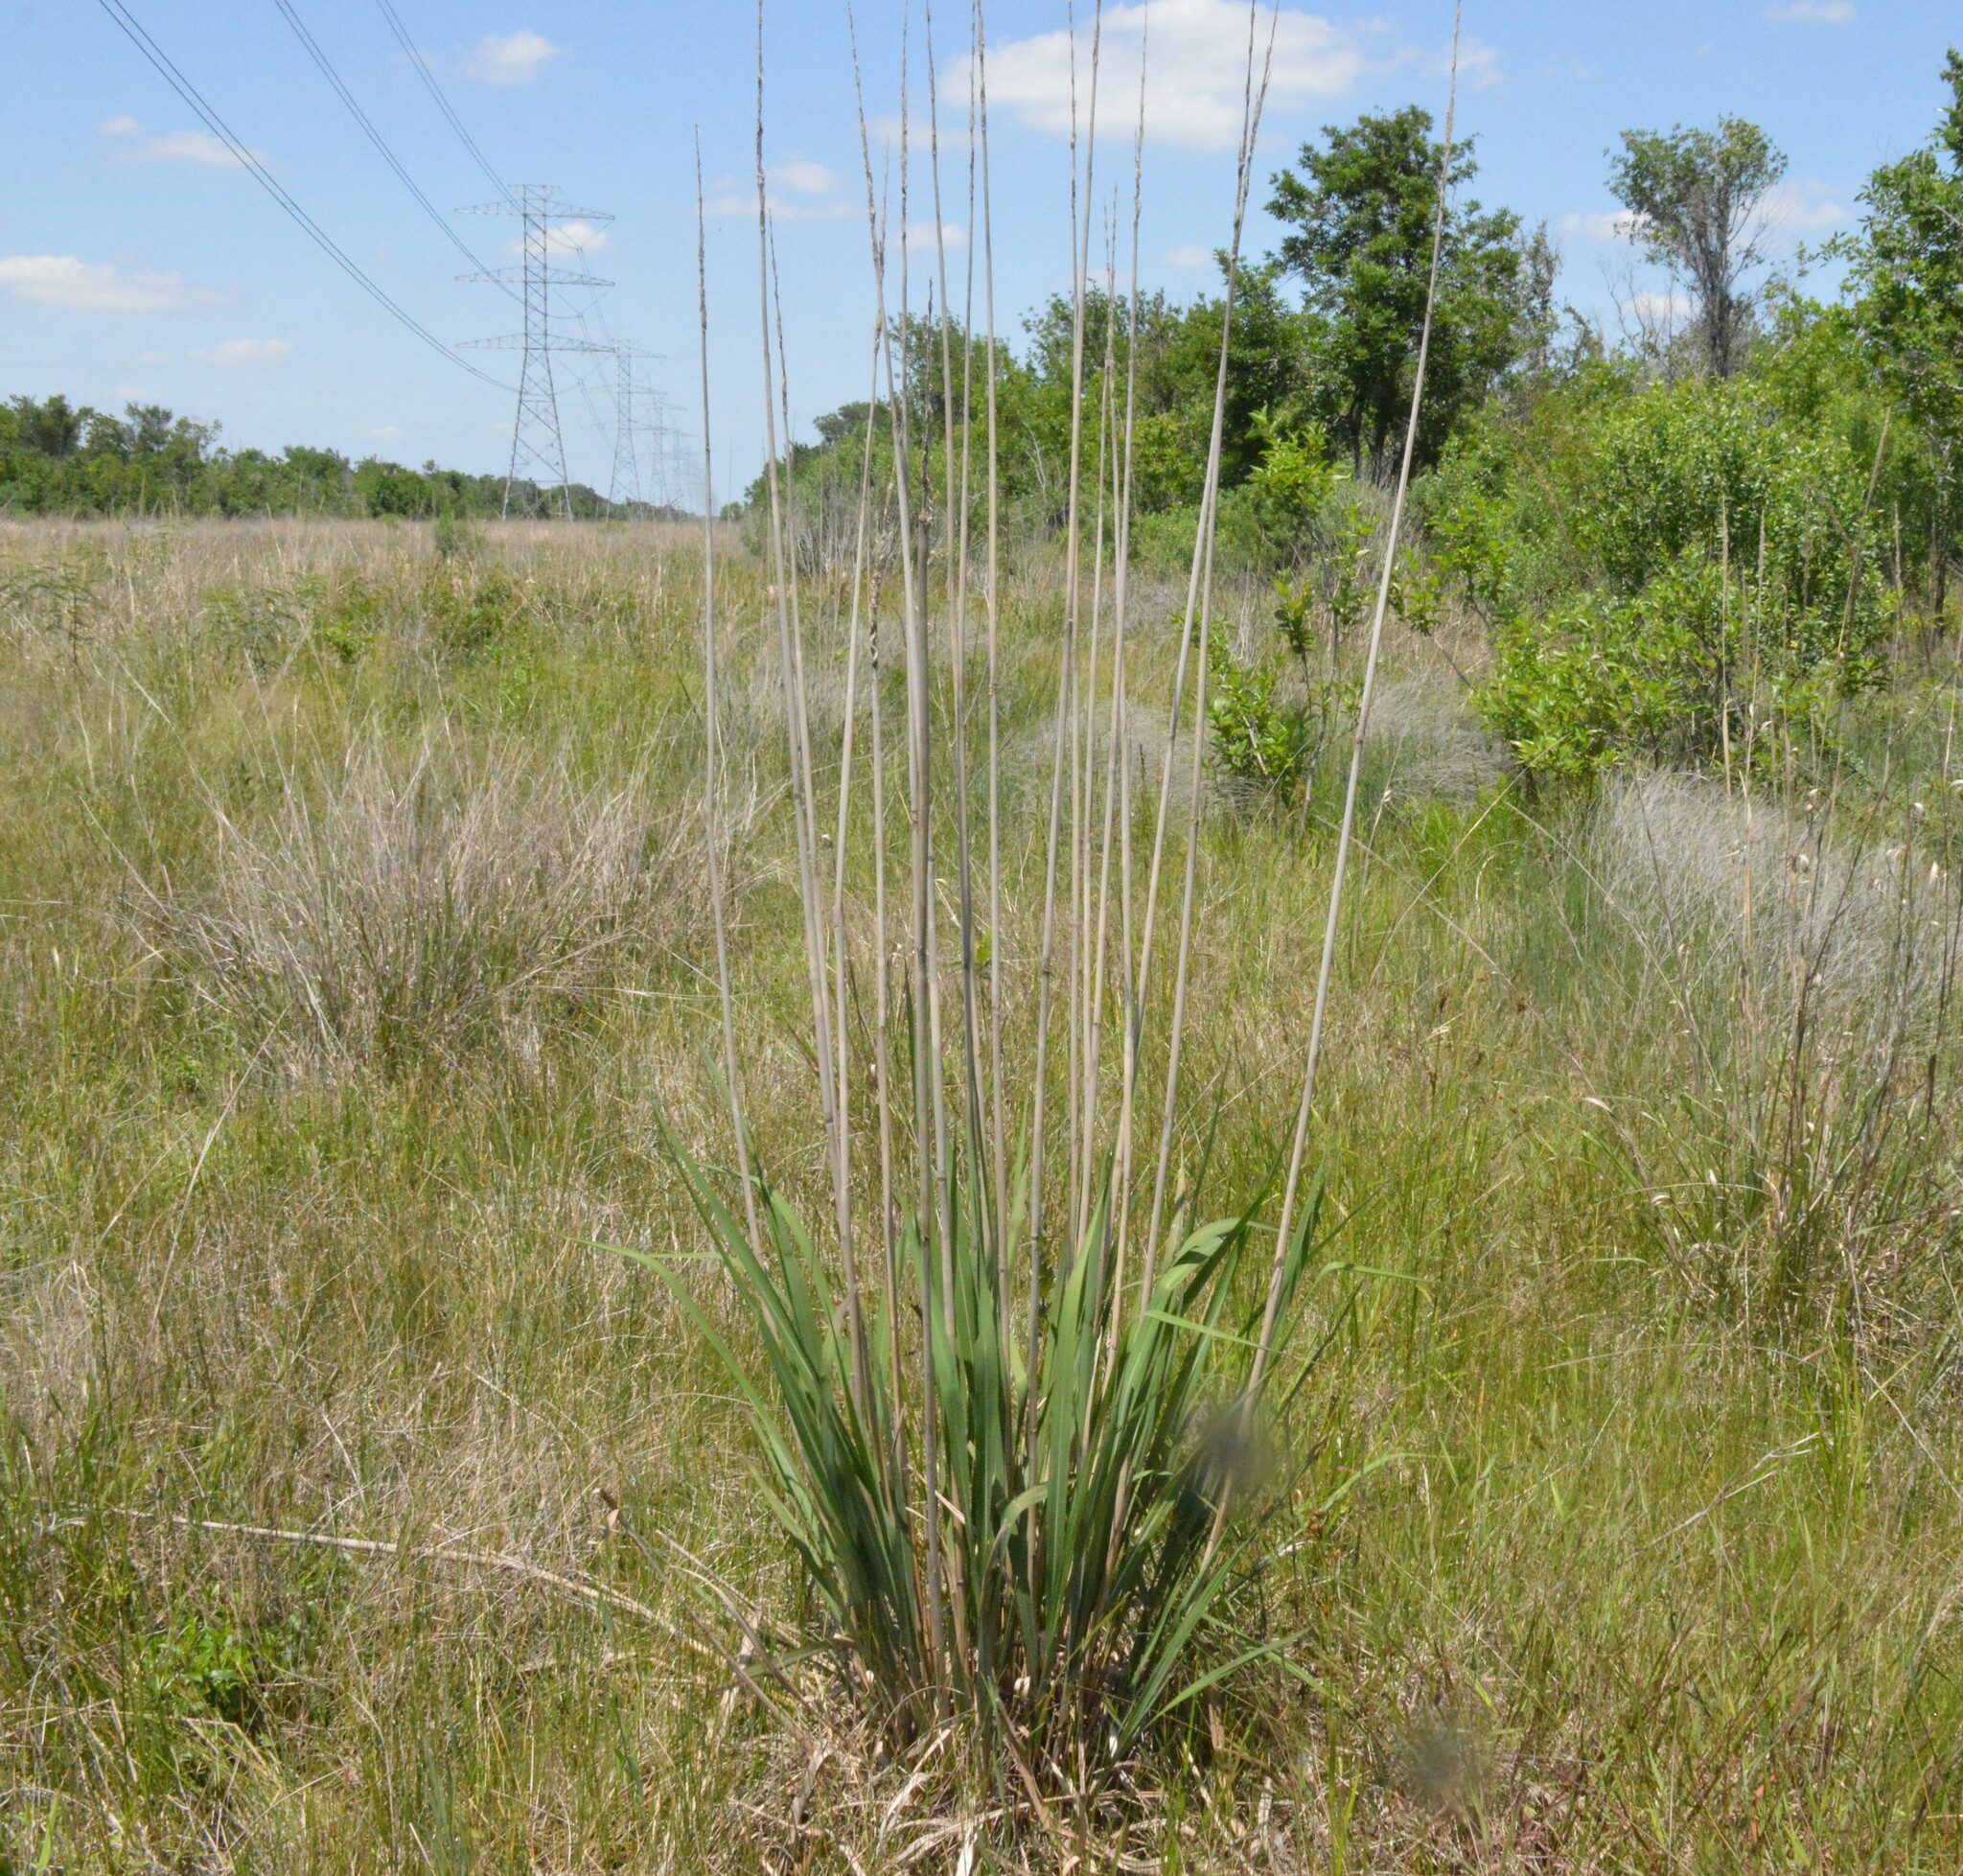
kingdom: Plantae
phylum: Tracheophyta
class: Liliopsida
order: Poales
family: Poaceae
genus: Erianthus
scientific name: Erianthus giganteus
